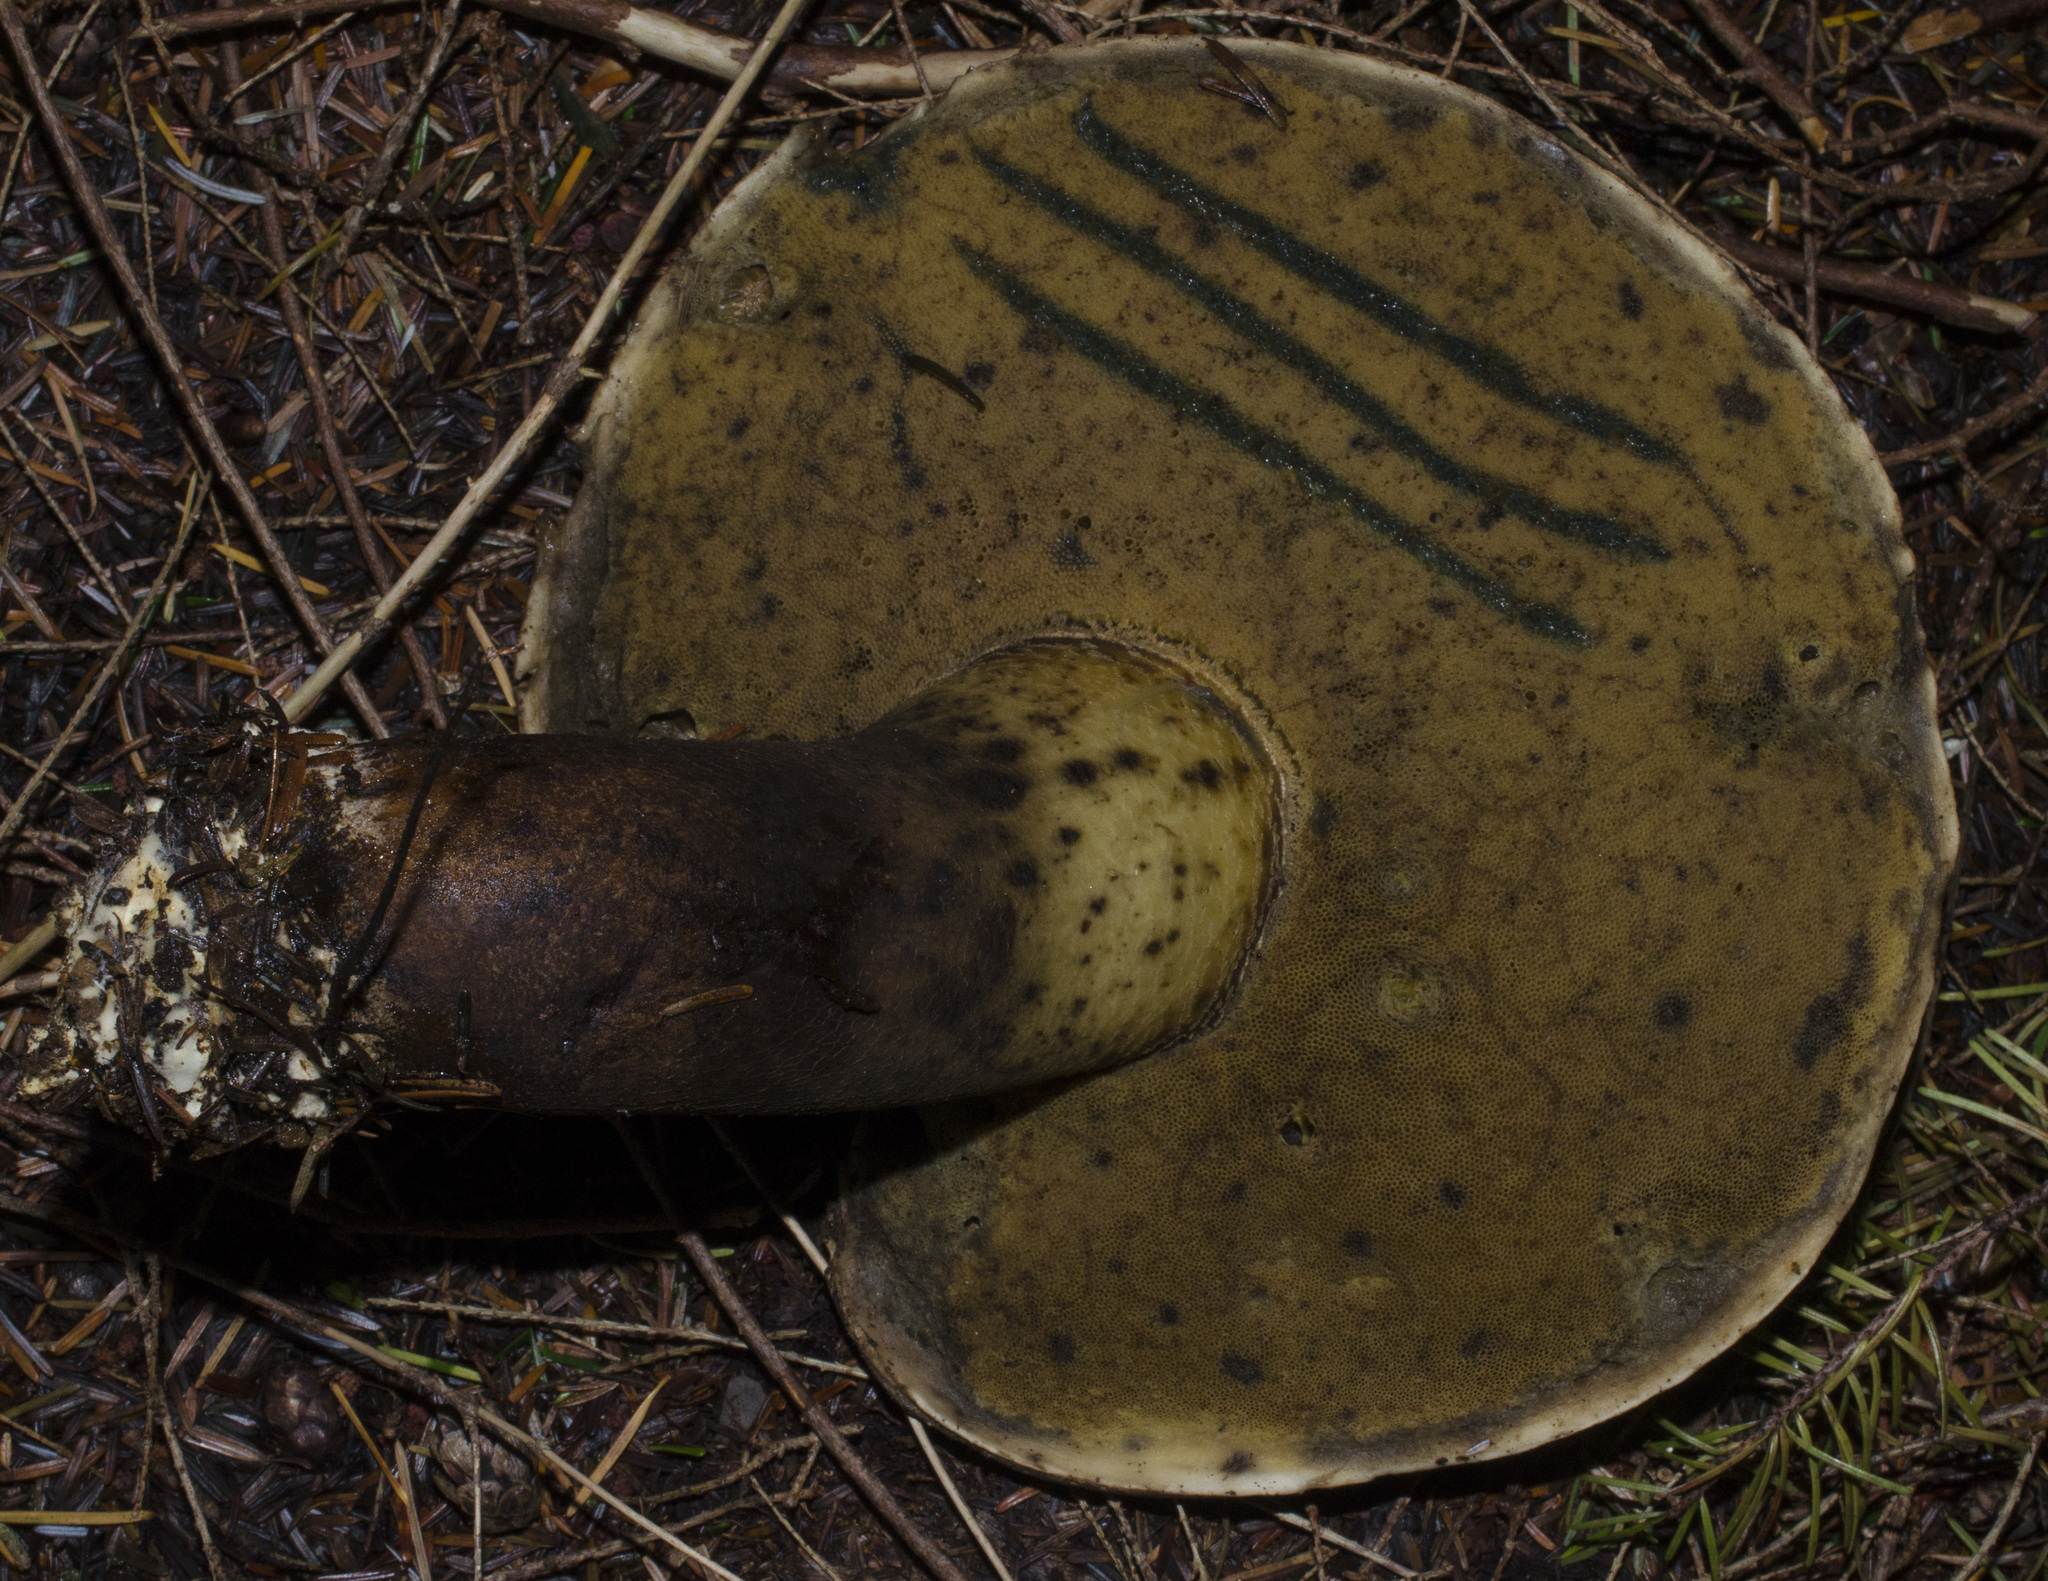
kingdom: Fungi
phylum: Basidiomycota
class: Agaricomycetes
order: Boletales
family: Boletaceae
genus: Caloboletus
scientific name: Caloboletus conifericola
